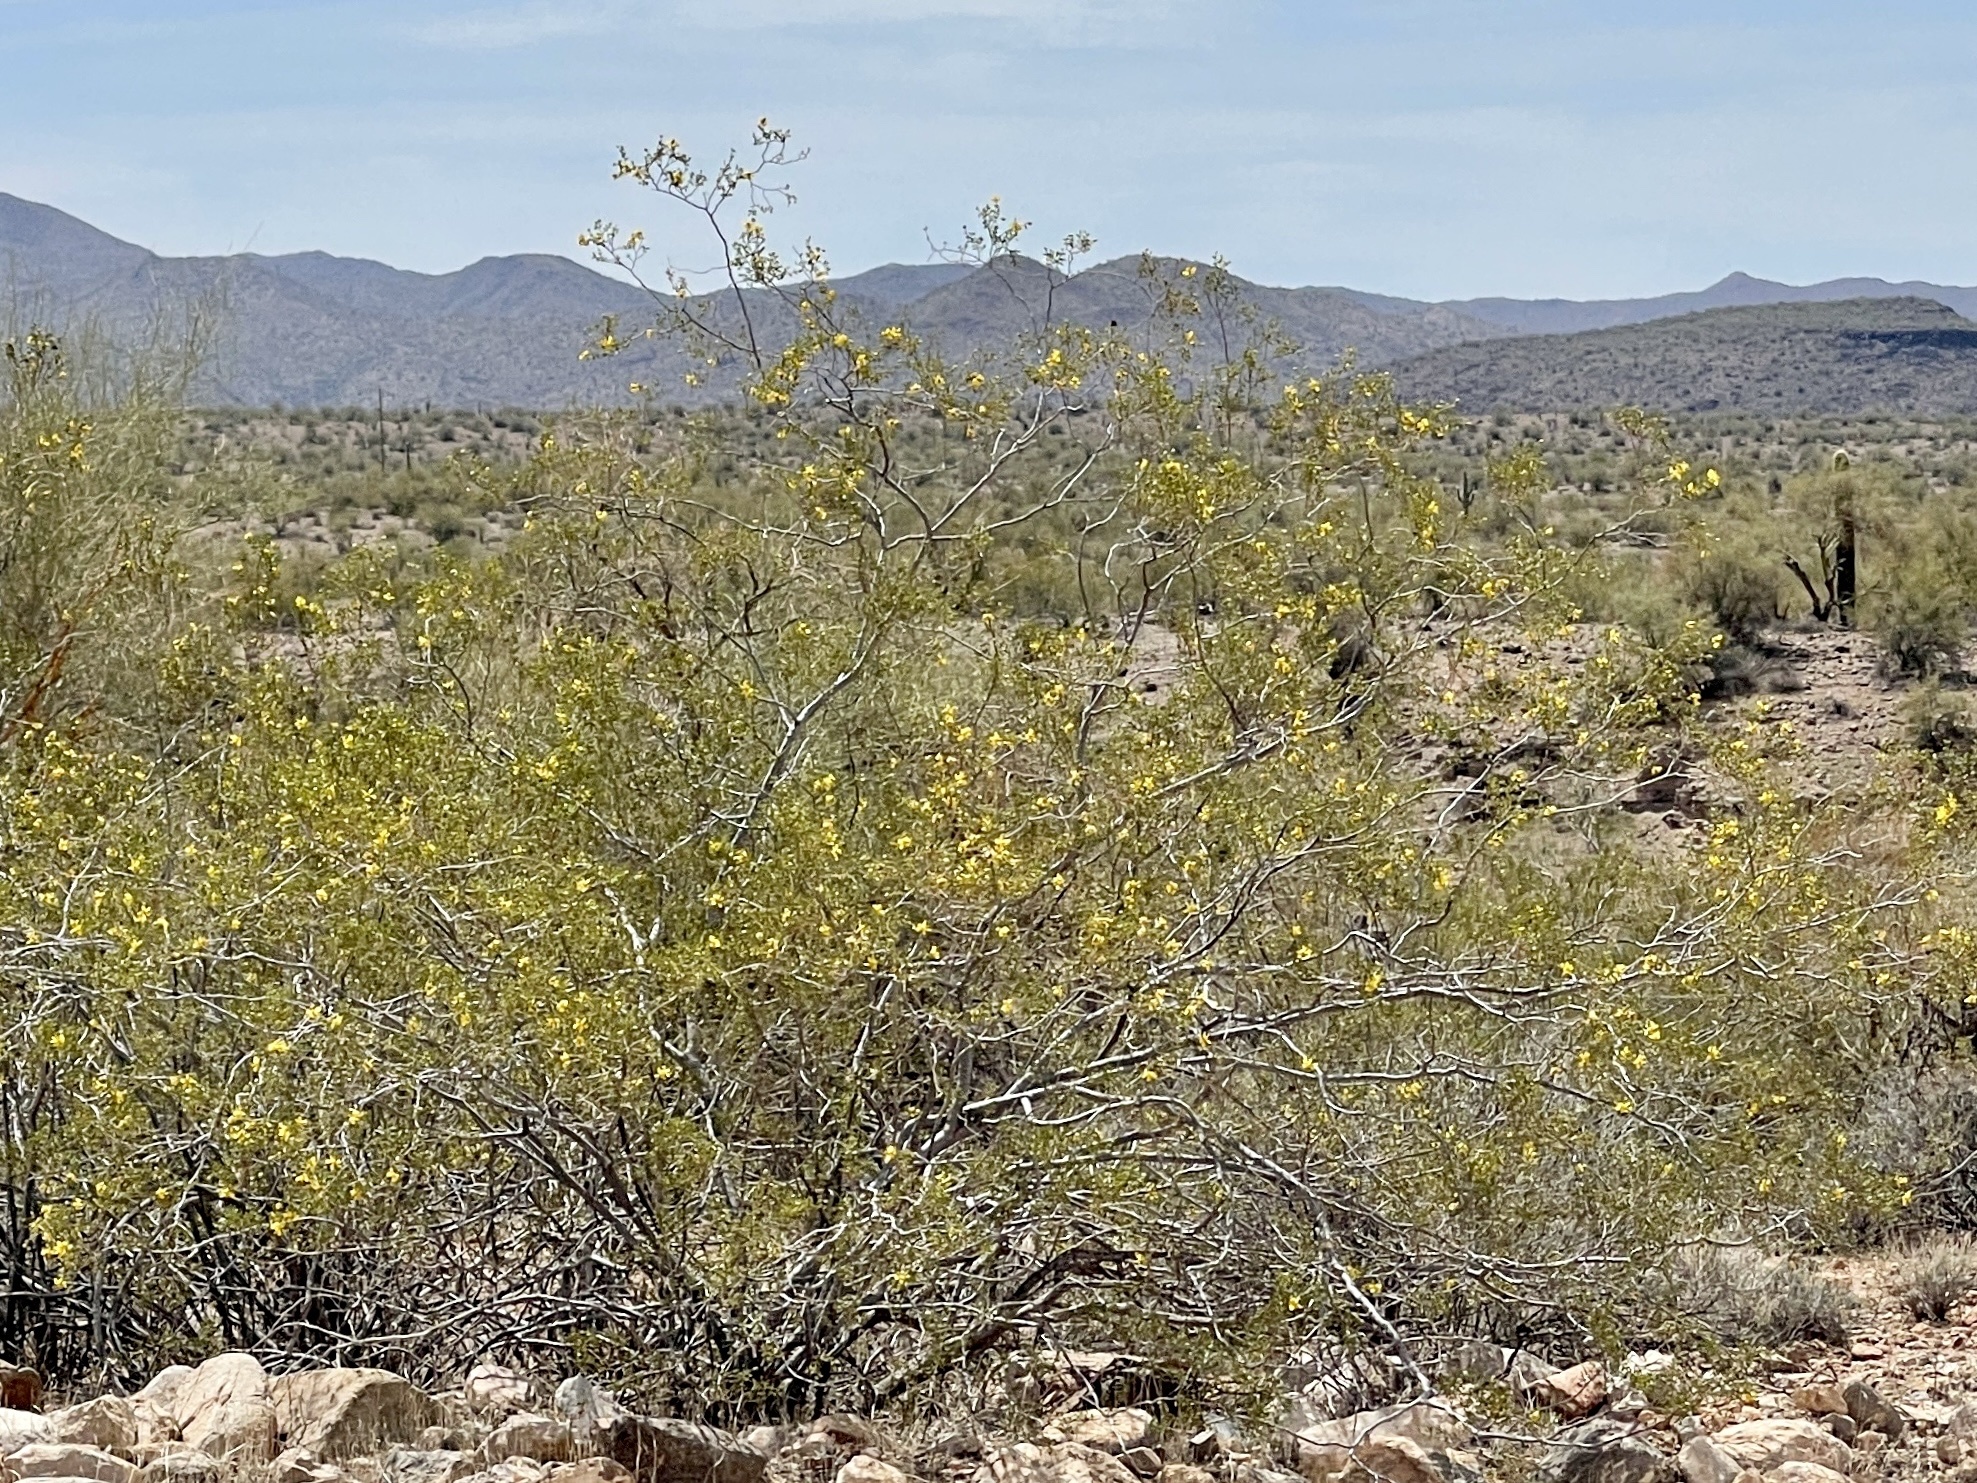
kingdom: Plantae
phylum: Tracheophyta
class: Magnoliopsida
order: Zygophyllales
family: Zygophyllaceae
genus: Larrea
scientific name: Larrea tridentata
